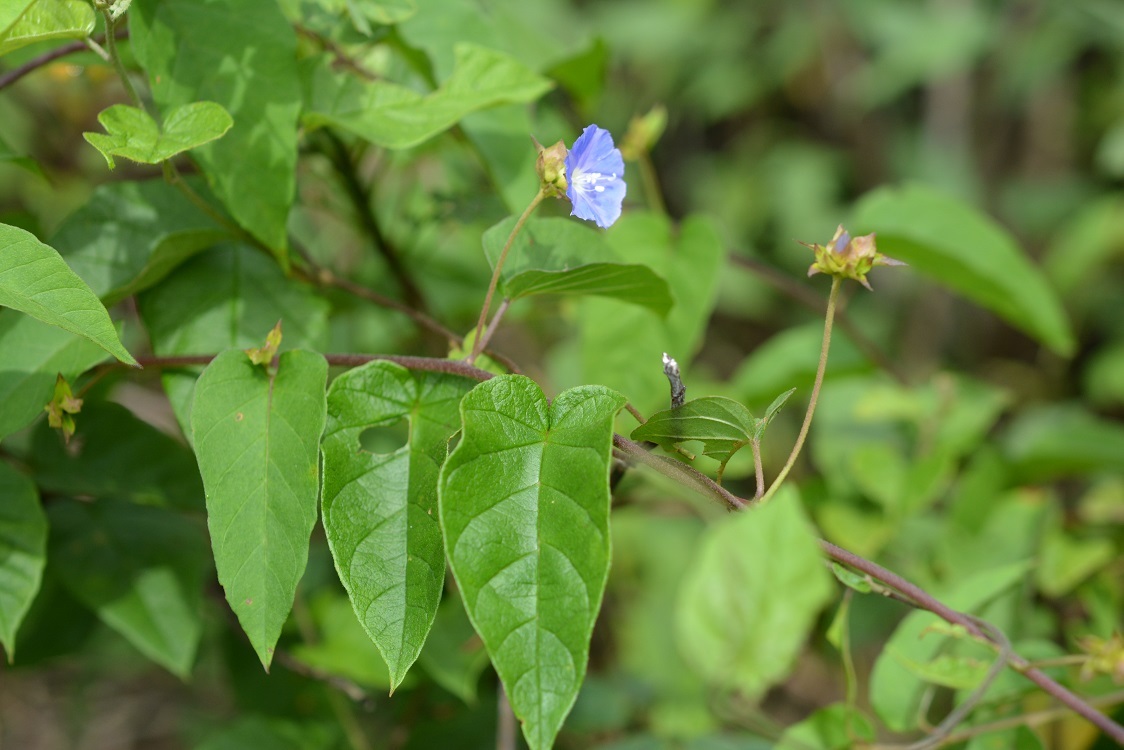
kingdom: Plantae
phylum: Tracheophyta
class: Magnoliopsida
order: Solanales
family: Convolvulaceae
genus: Jacquemontia
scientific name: Jacquemontia pentanthos
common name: Skyblue clustervine
